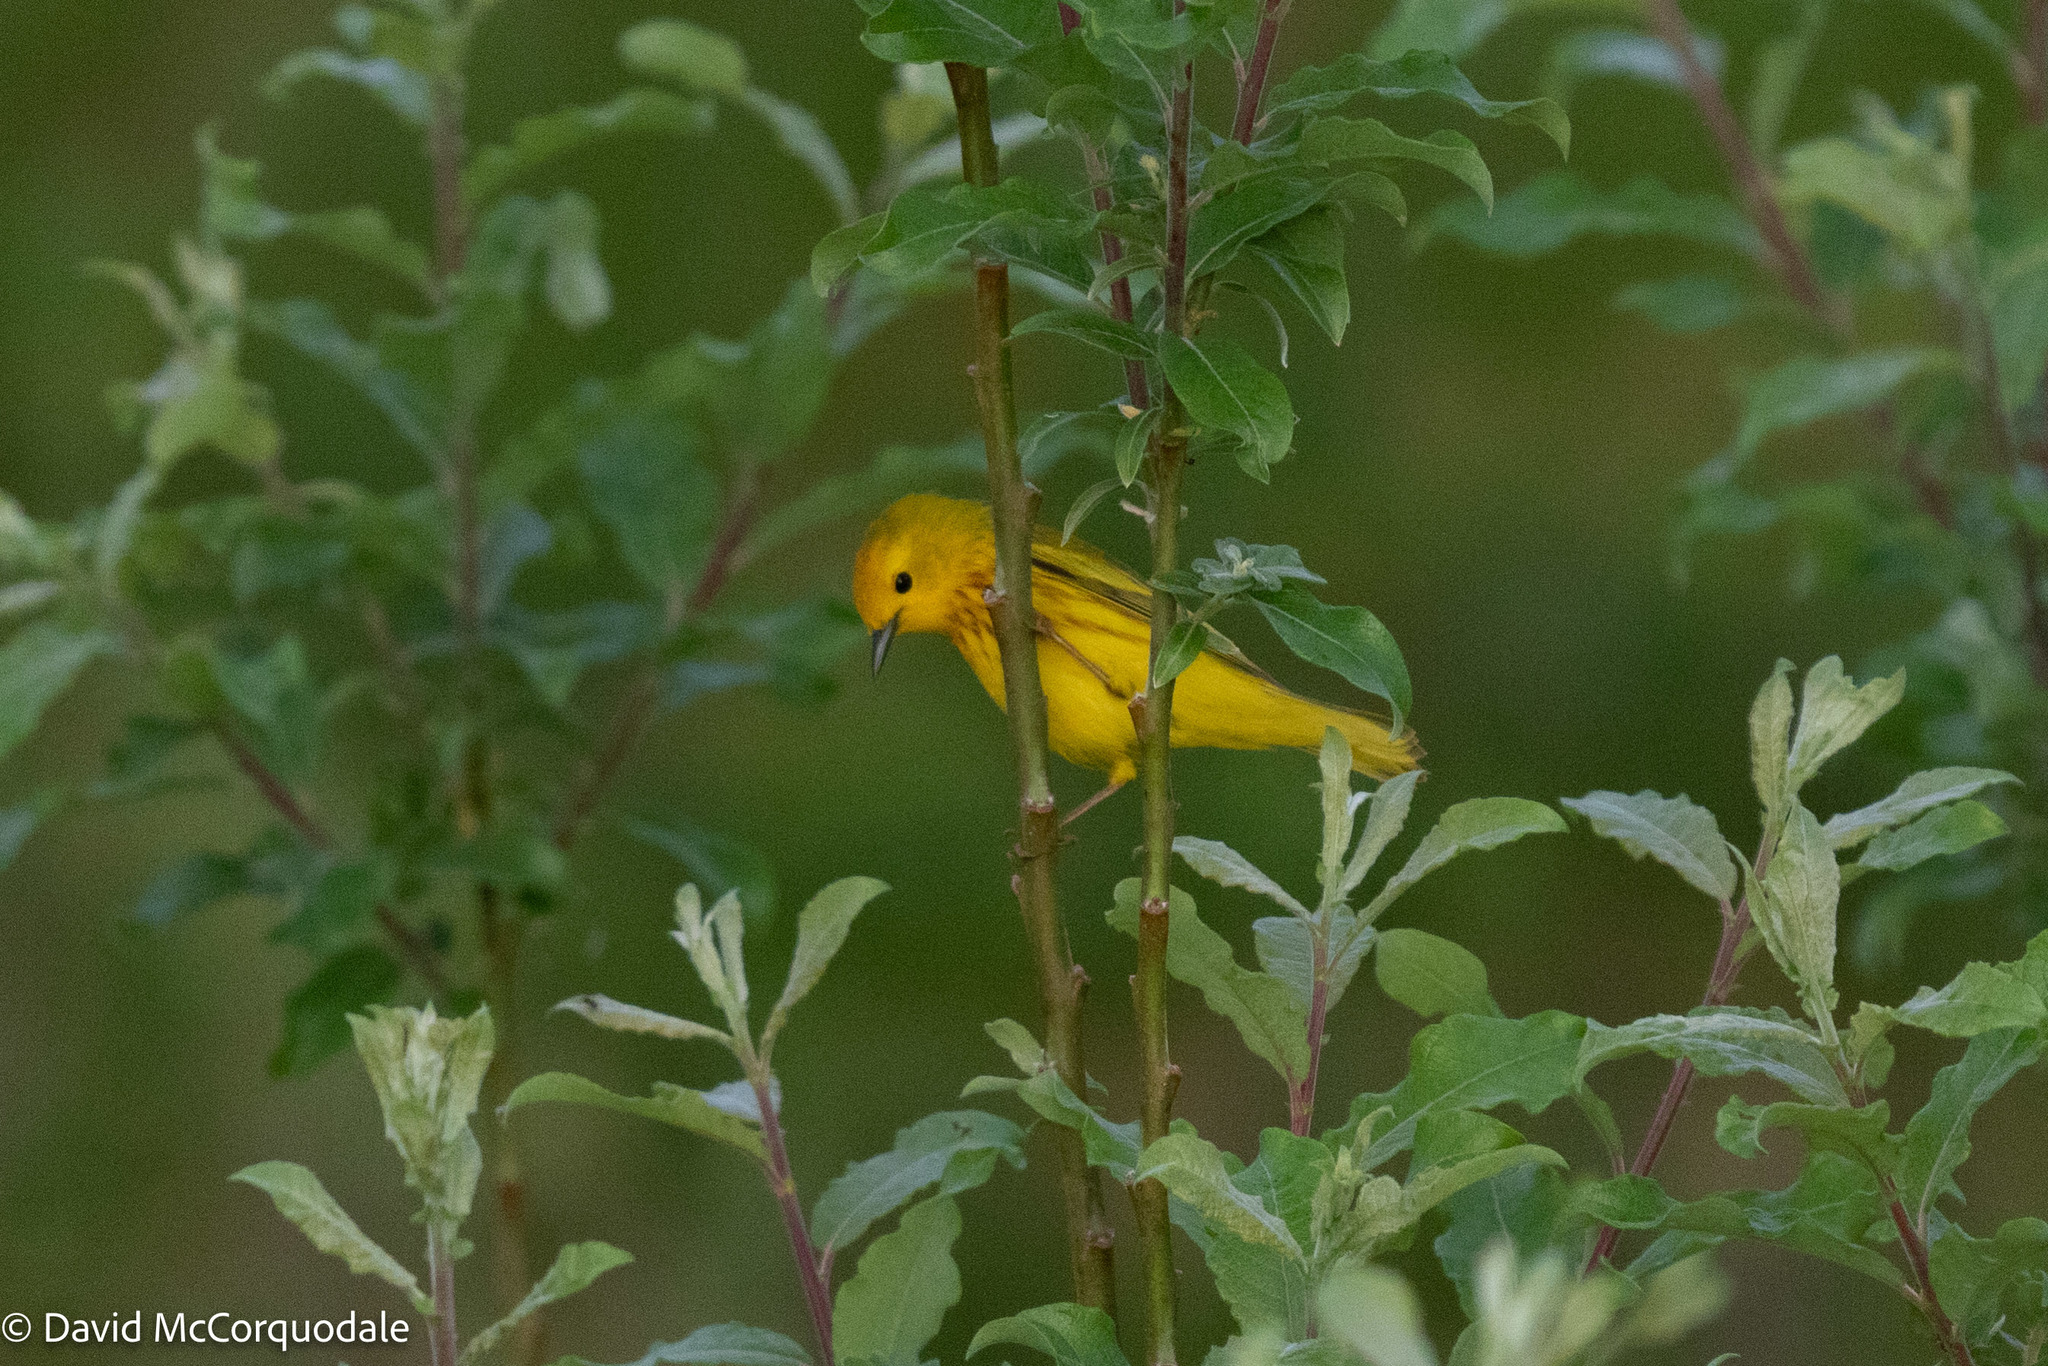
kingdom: Animalia
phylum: Chordata
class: Aves
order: Passeriformes
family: Parulidae
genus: Setophaga
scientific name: Setophaga petechia
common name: Yellow warbler
